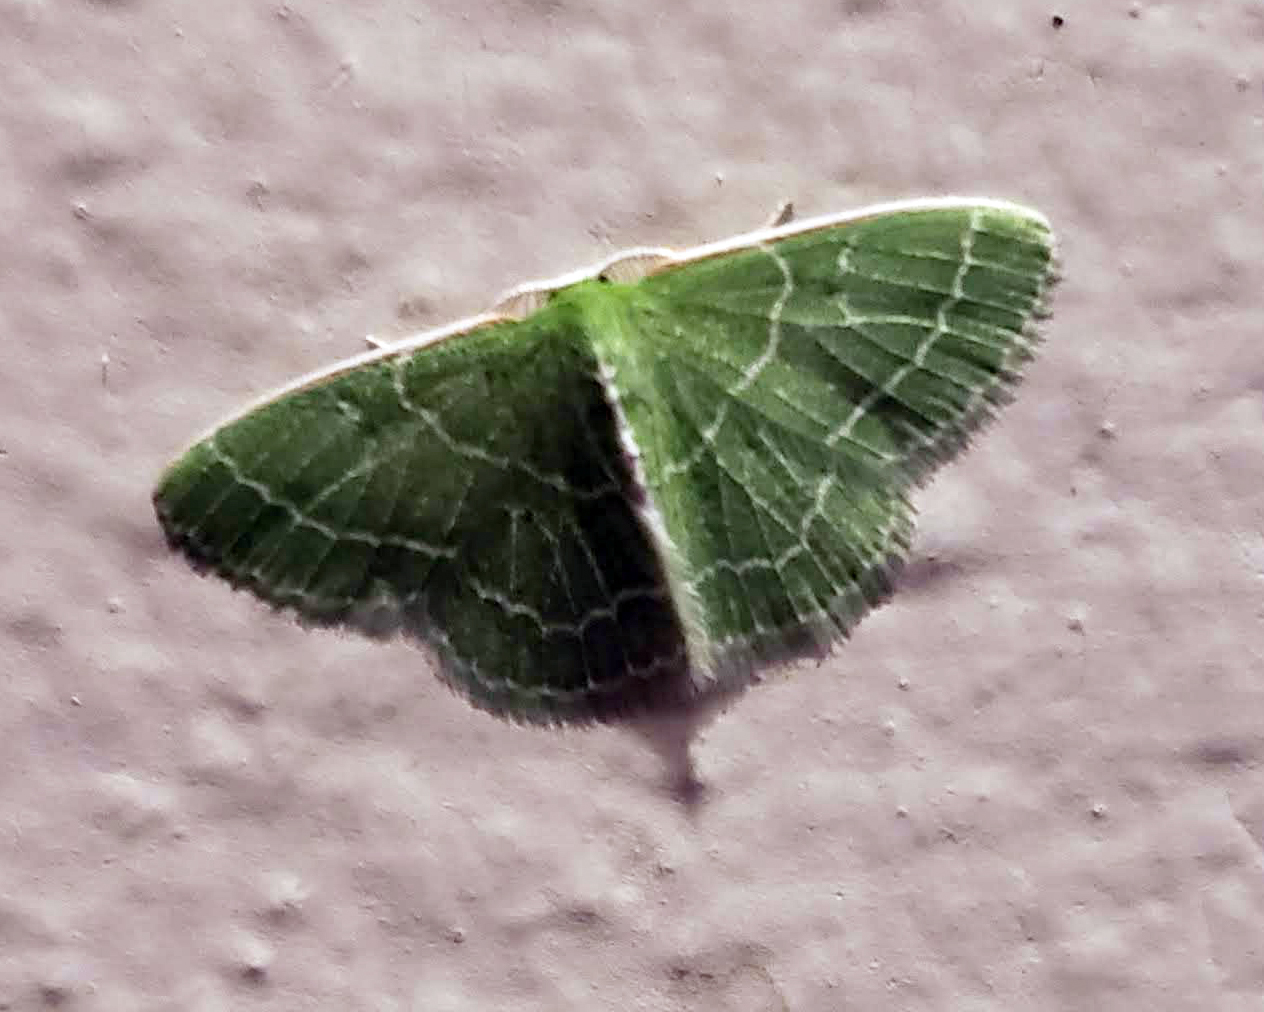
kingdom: Animalia
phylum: Arthropoda
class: Insecta
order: Lepidoptera
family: Geometridae
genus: Synchlora
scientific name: Synchlora aerata
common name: Wavy-lined emerald
